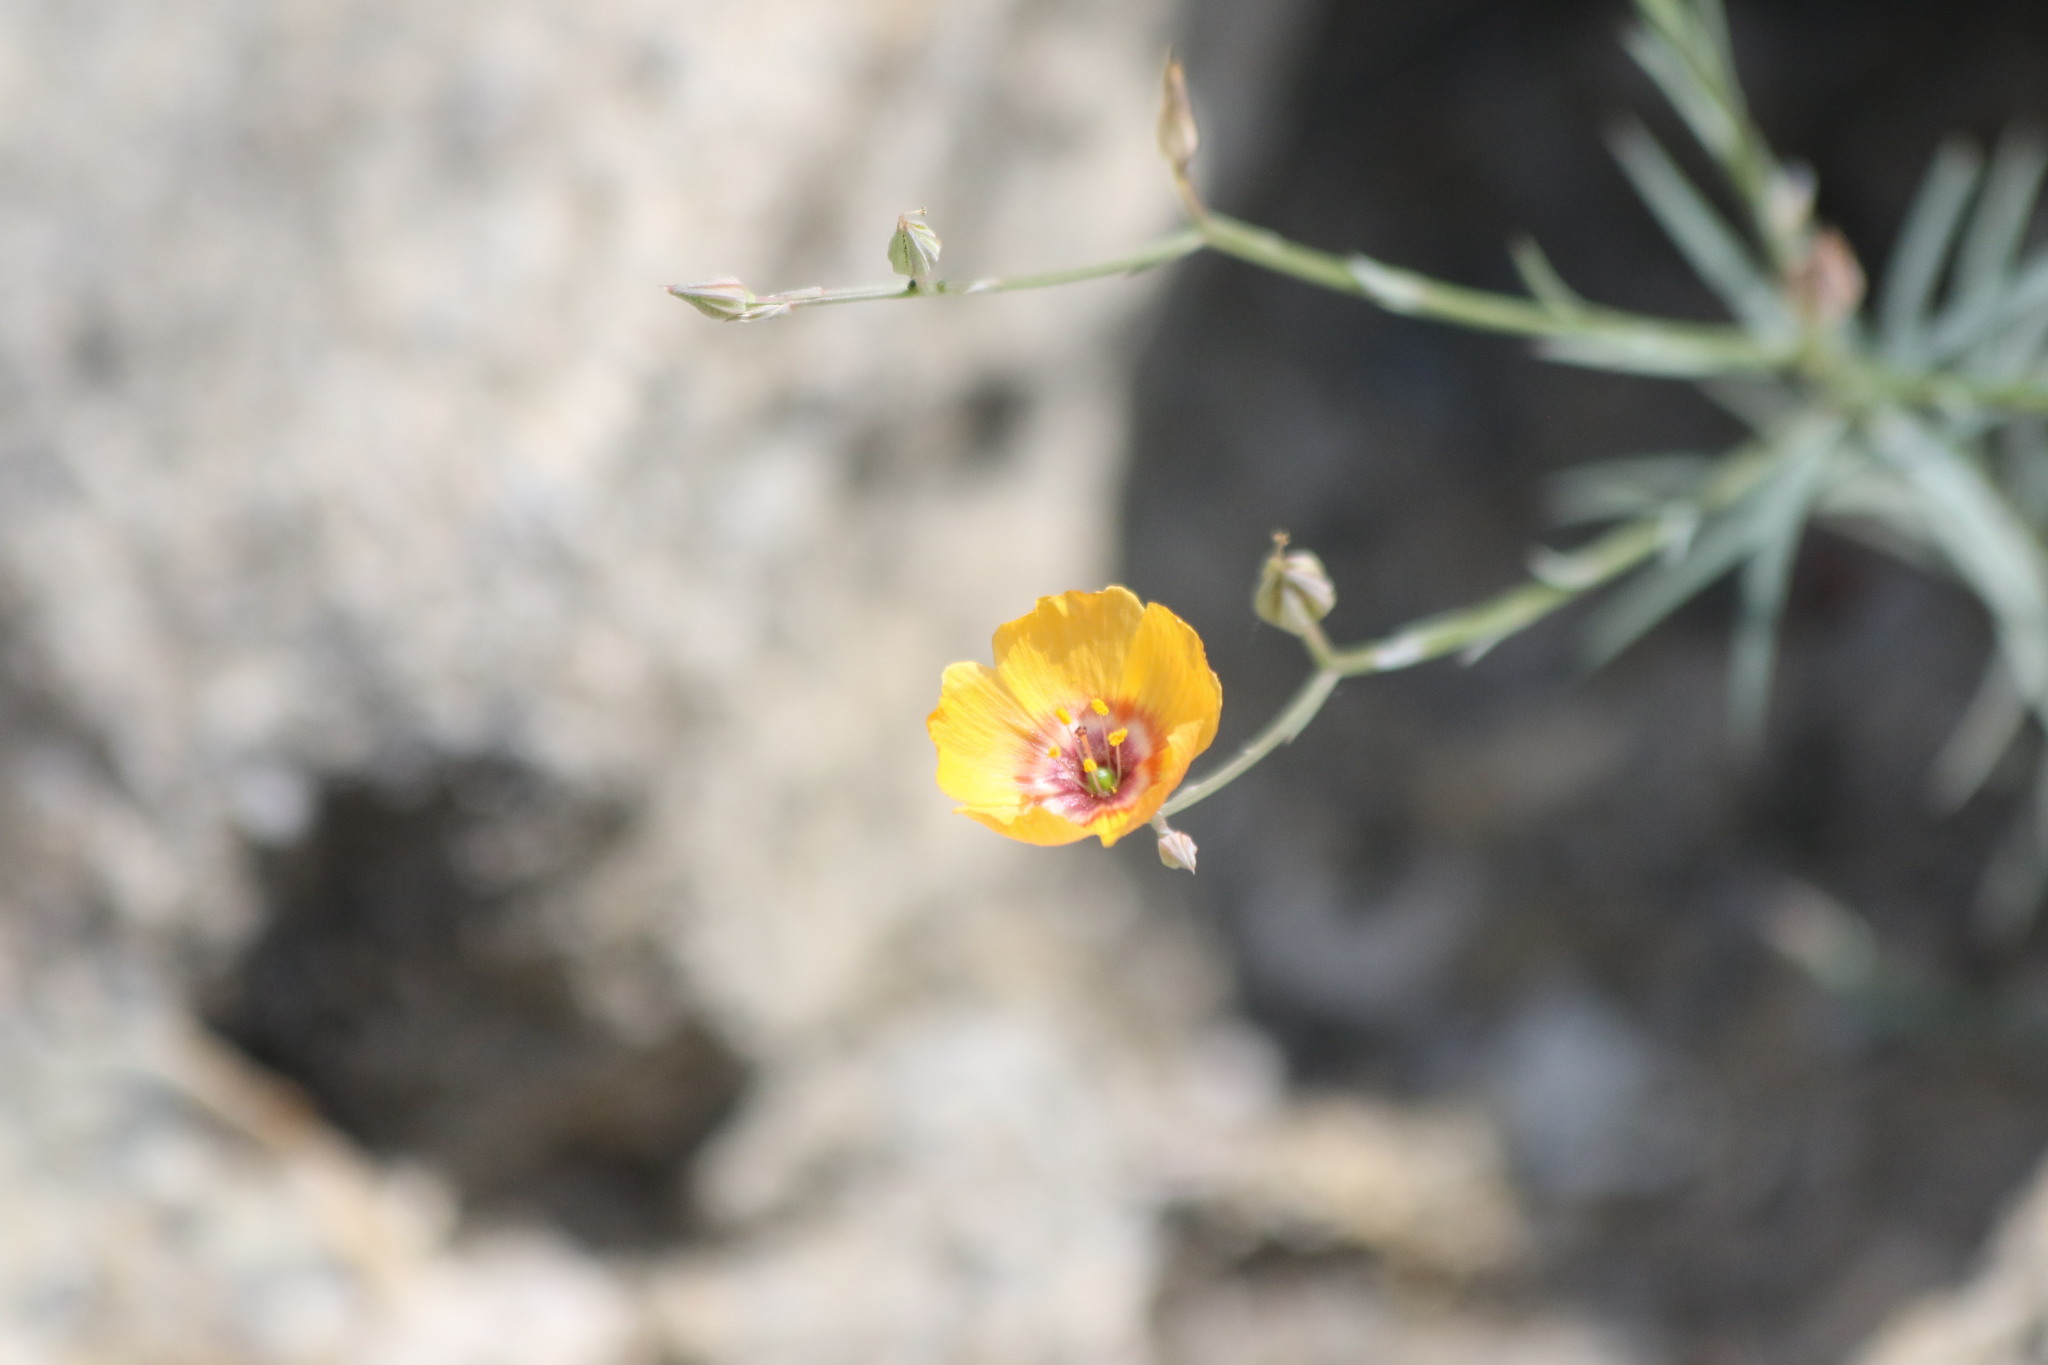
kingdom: Plantae
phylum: Tracheophyta
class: Magnoliopsida
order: Malpighiales
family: Linaceae
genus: Linum
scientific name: Linum elongatum
